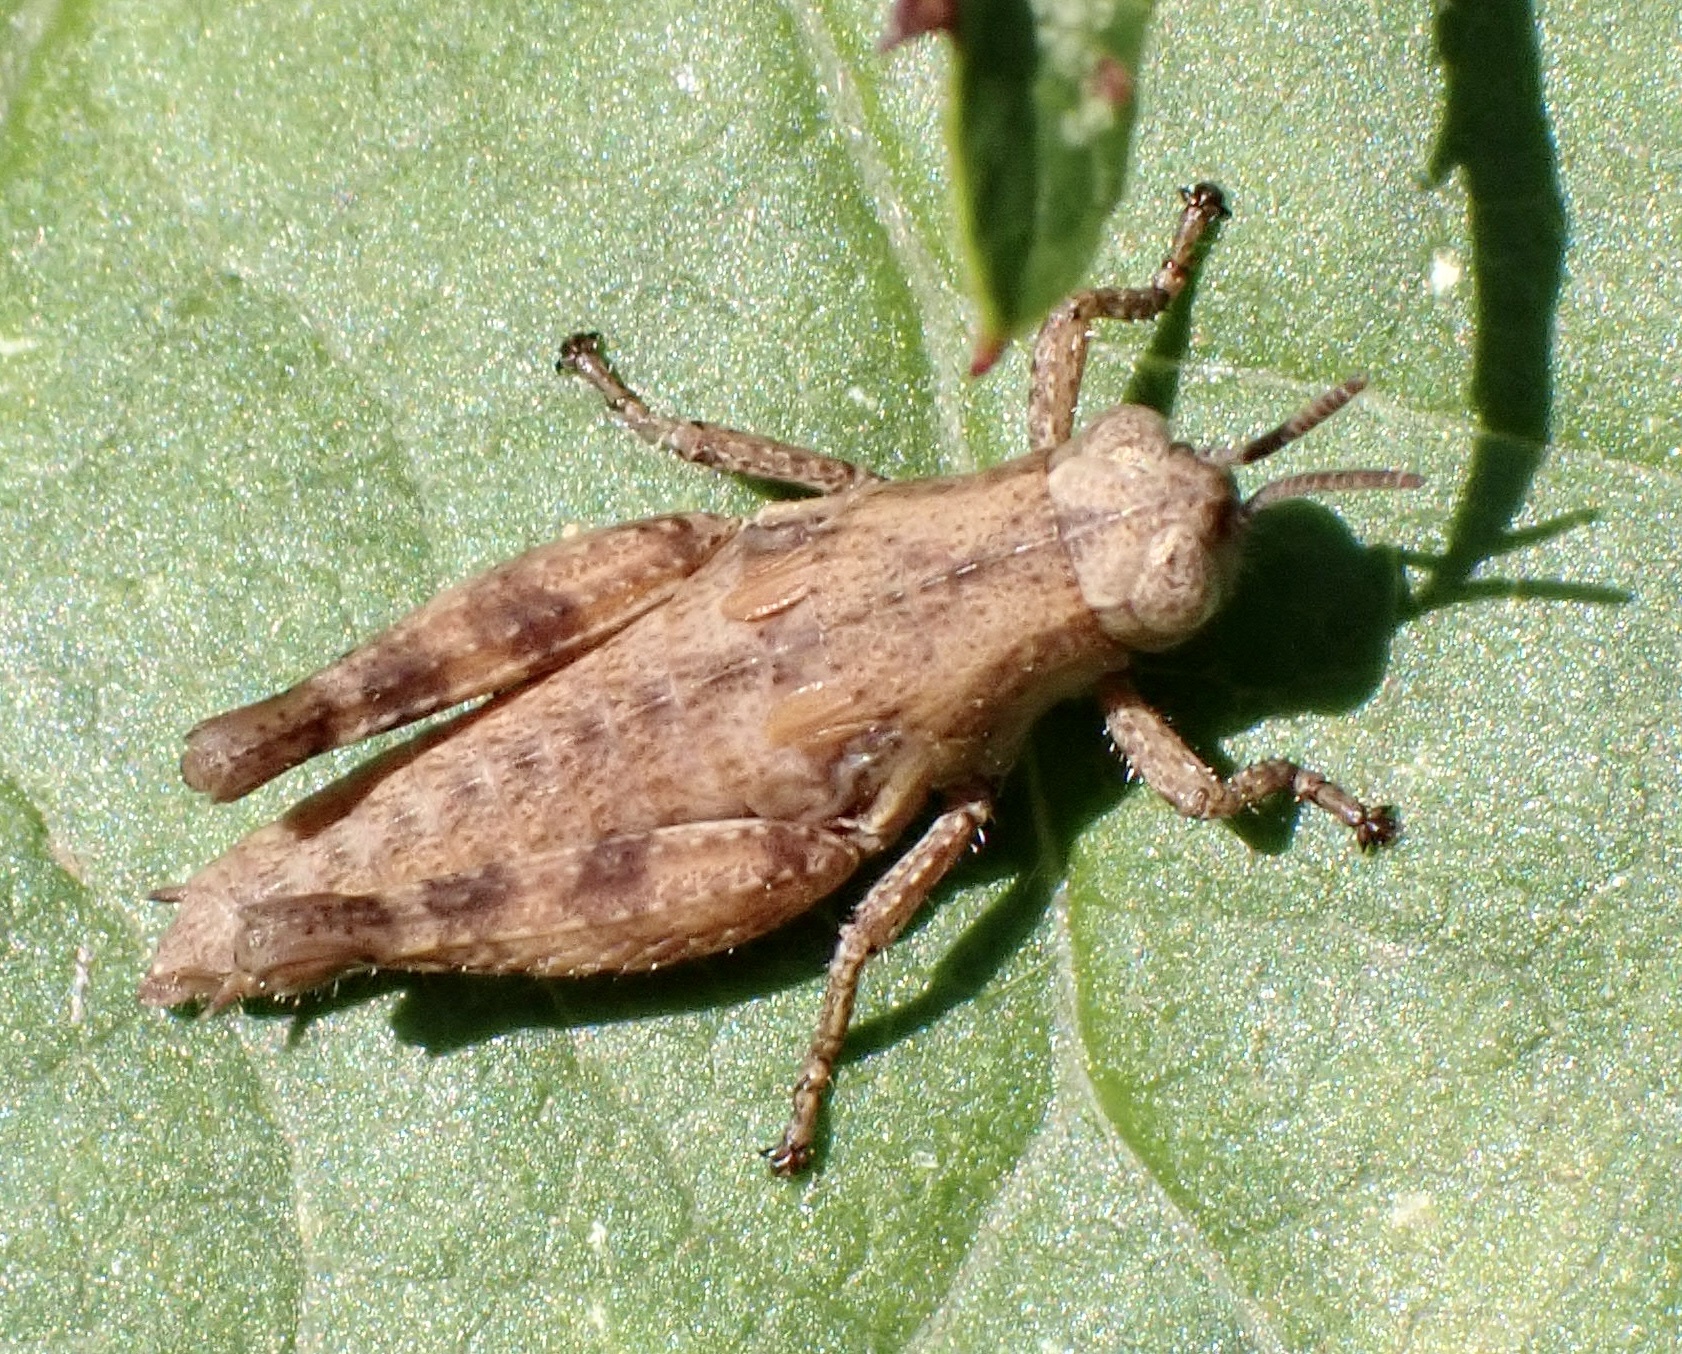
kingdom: Animalia
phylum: Arthropoda
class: Insecta
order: Orthoptera
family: Acrididae
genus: Pezotettix
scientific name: Pezotettix giornae
